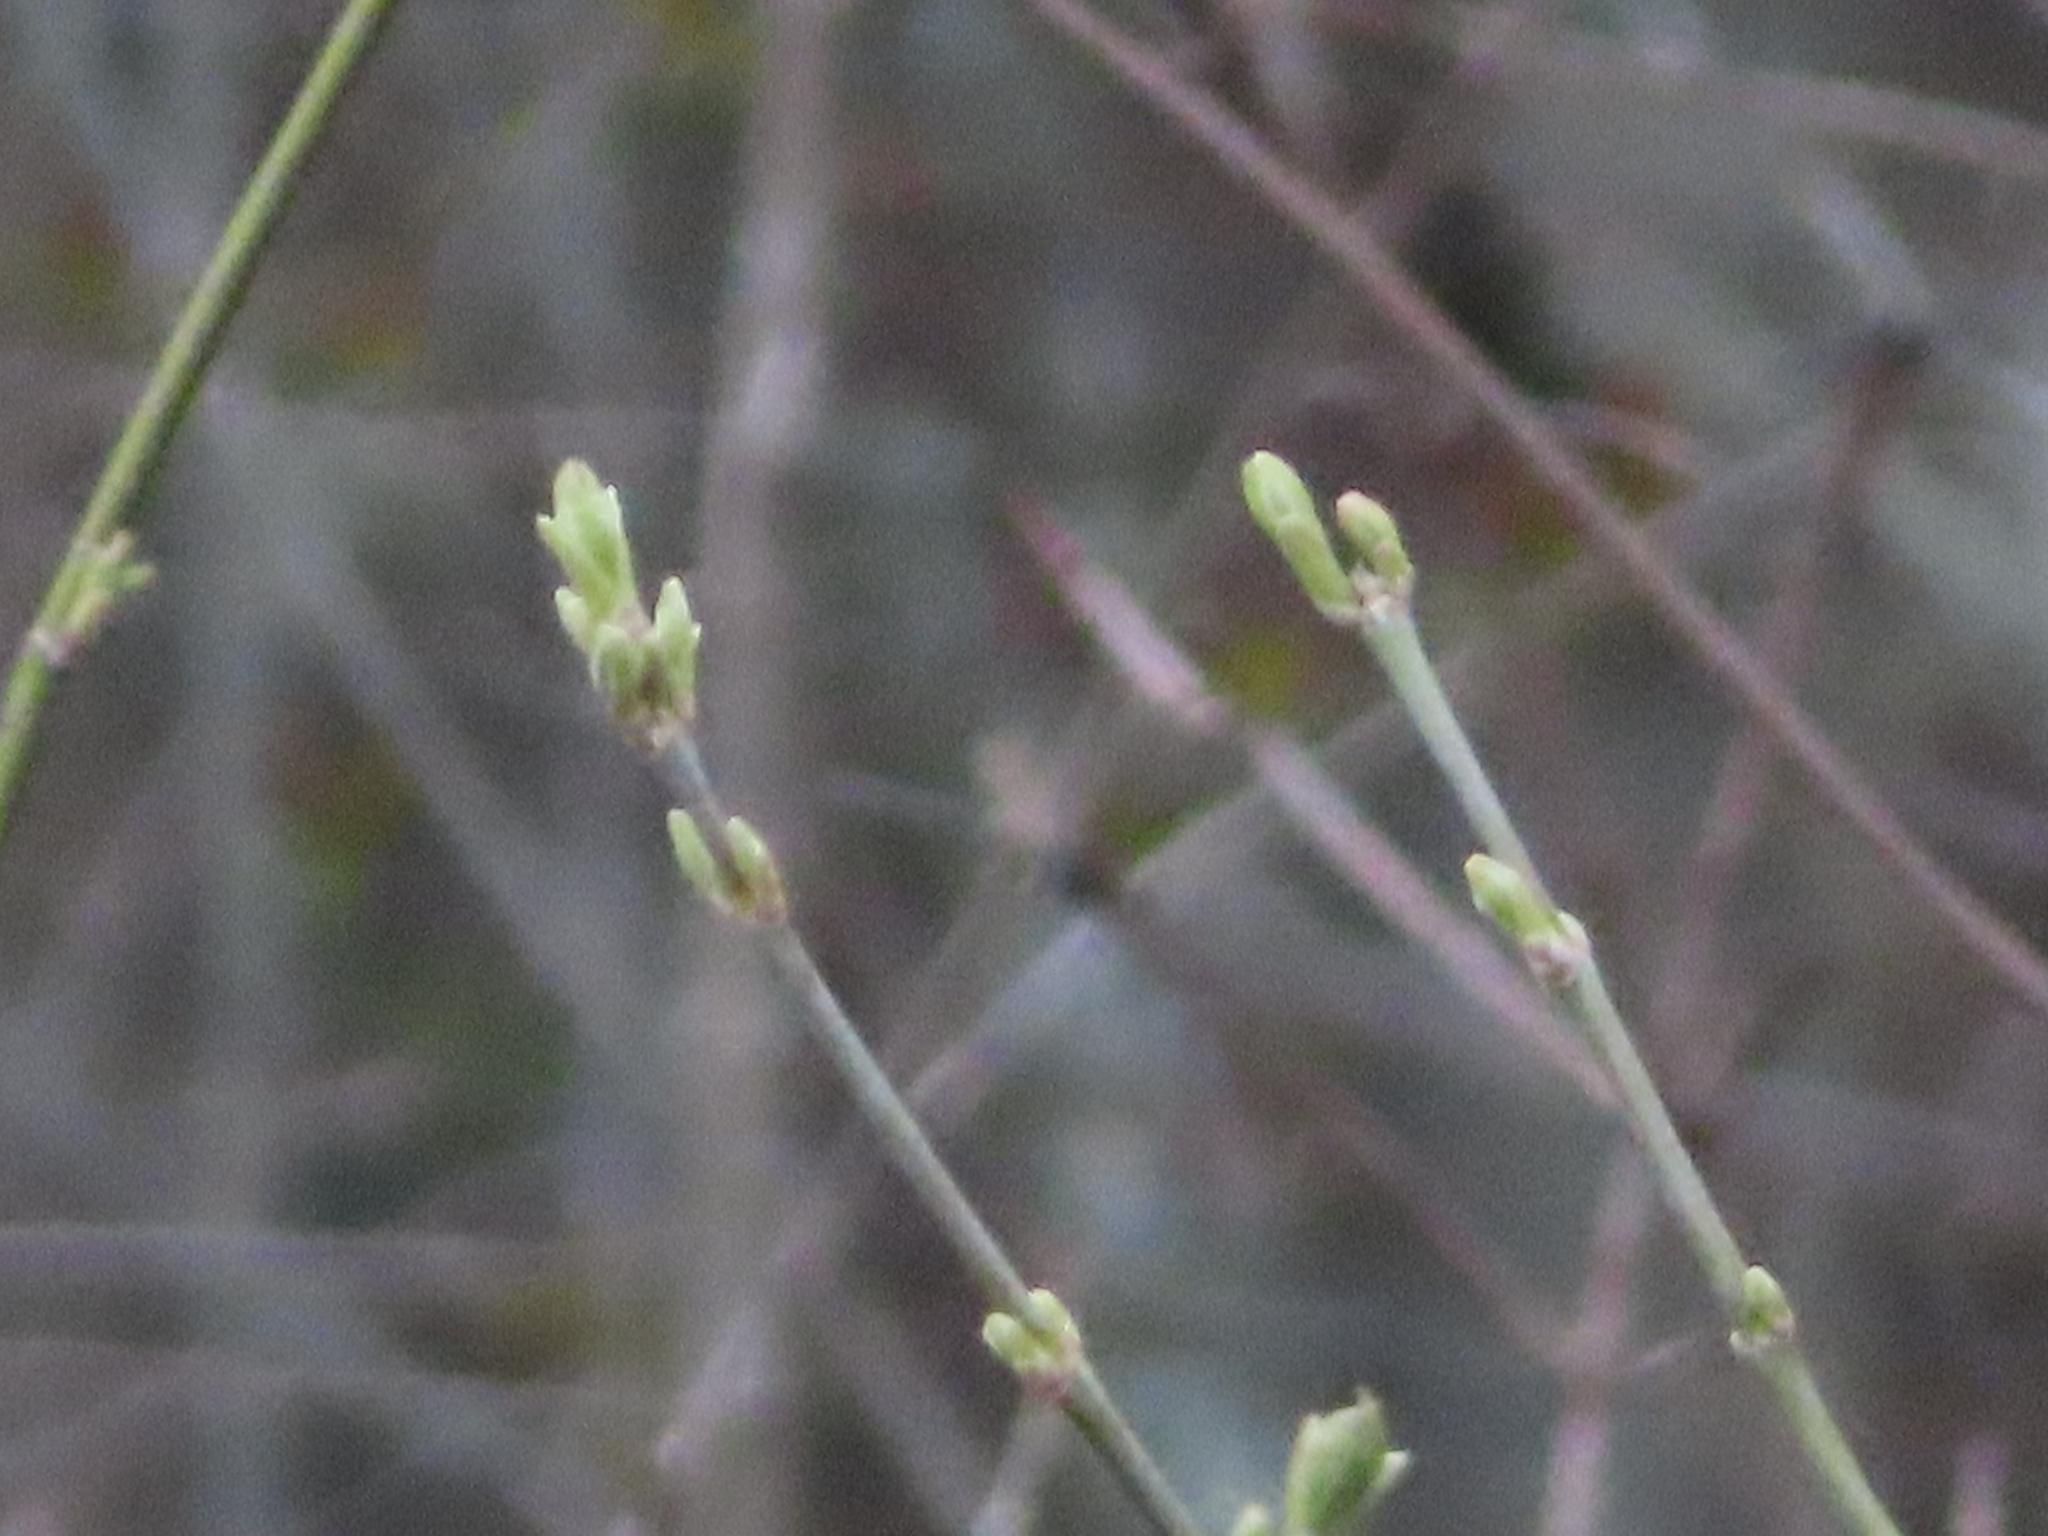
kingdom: Plantae
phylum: Tracheophyta
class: Magnoliopsida
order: Sapindales
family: Sapindaceae
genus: Acer
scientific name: Acer negundo
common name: Ashleaf maple
